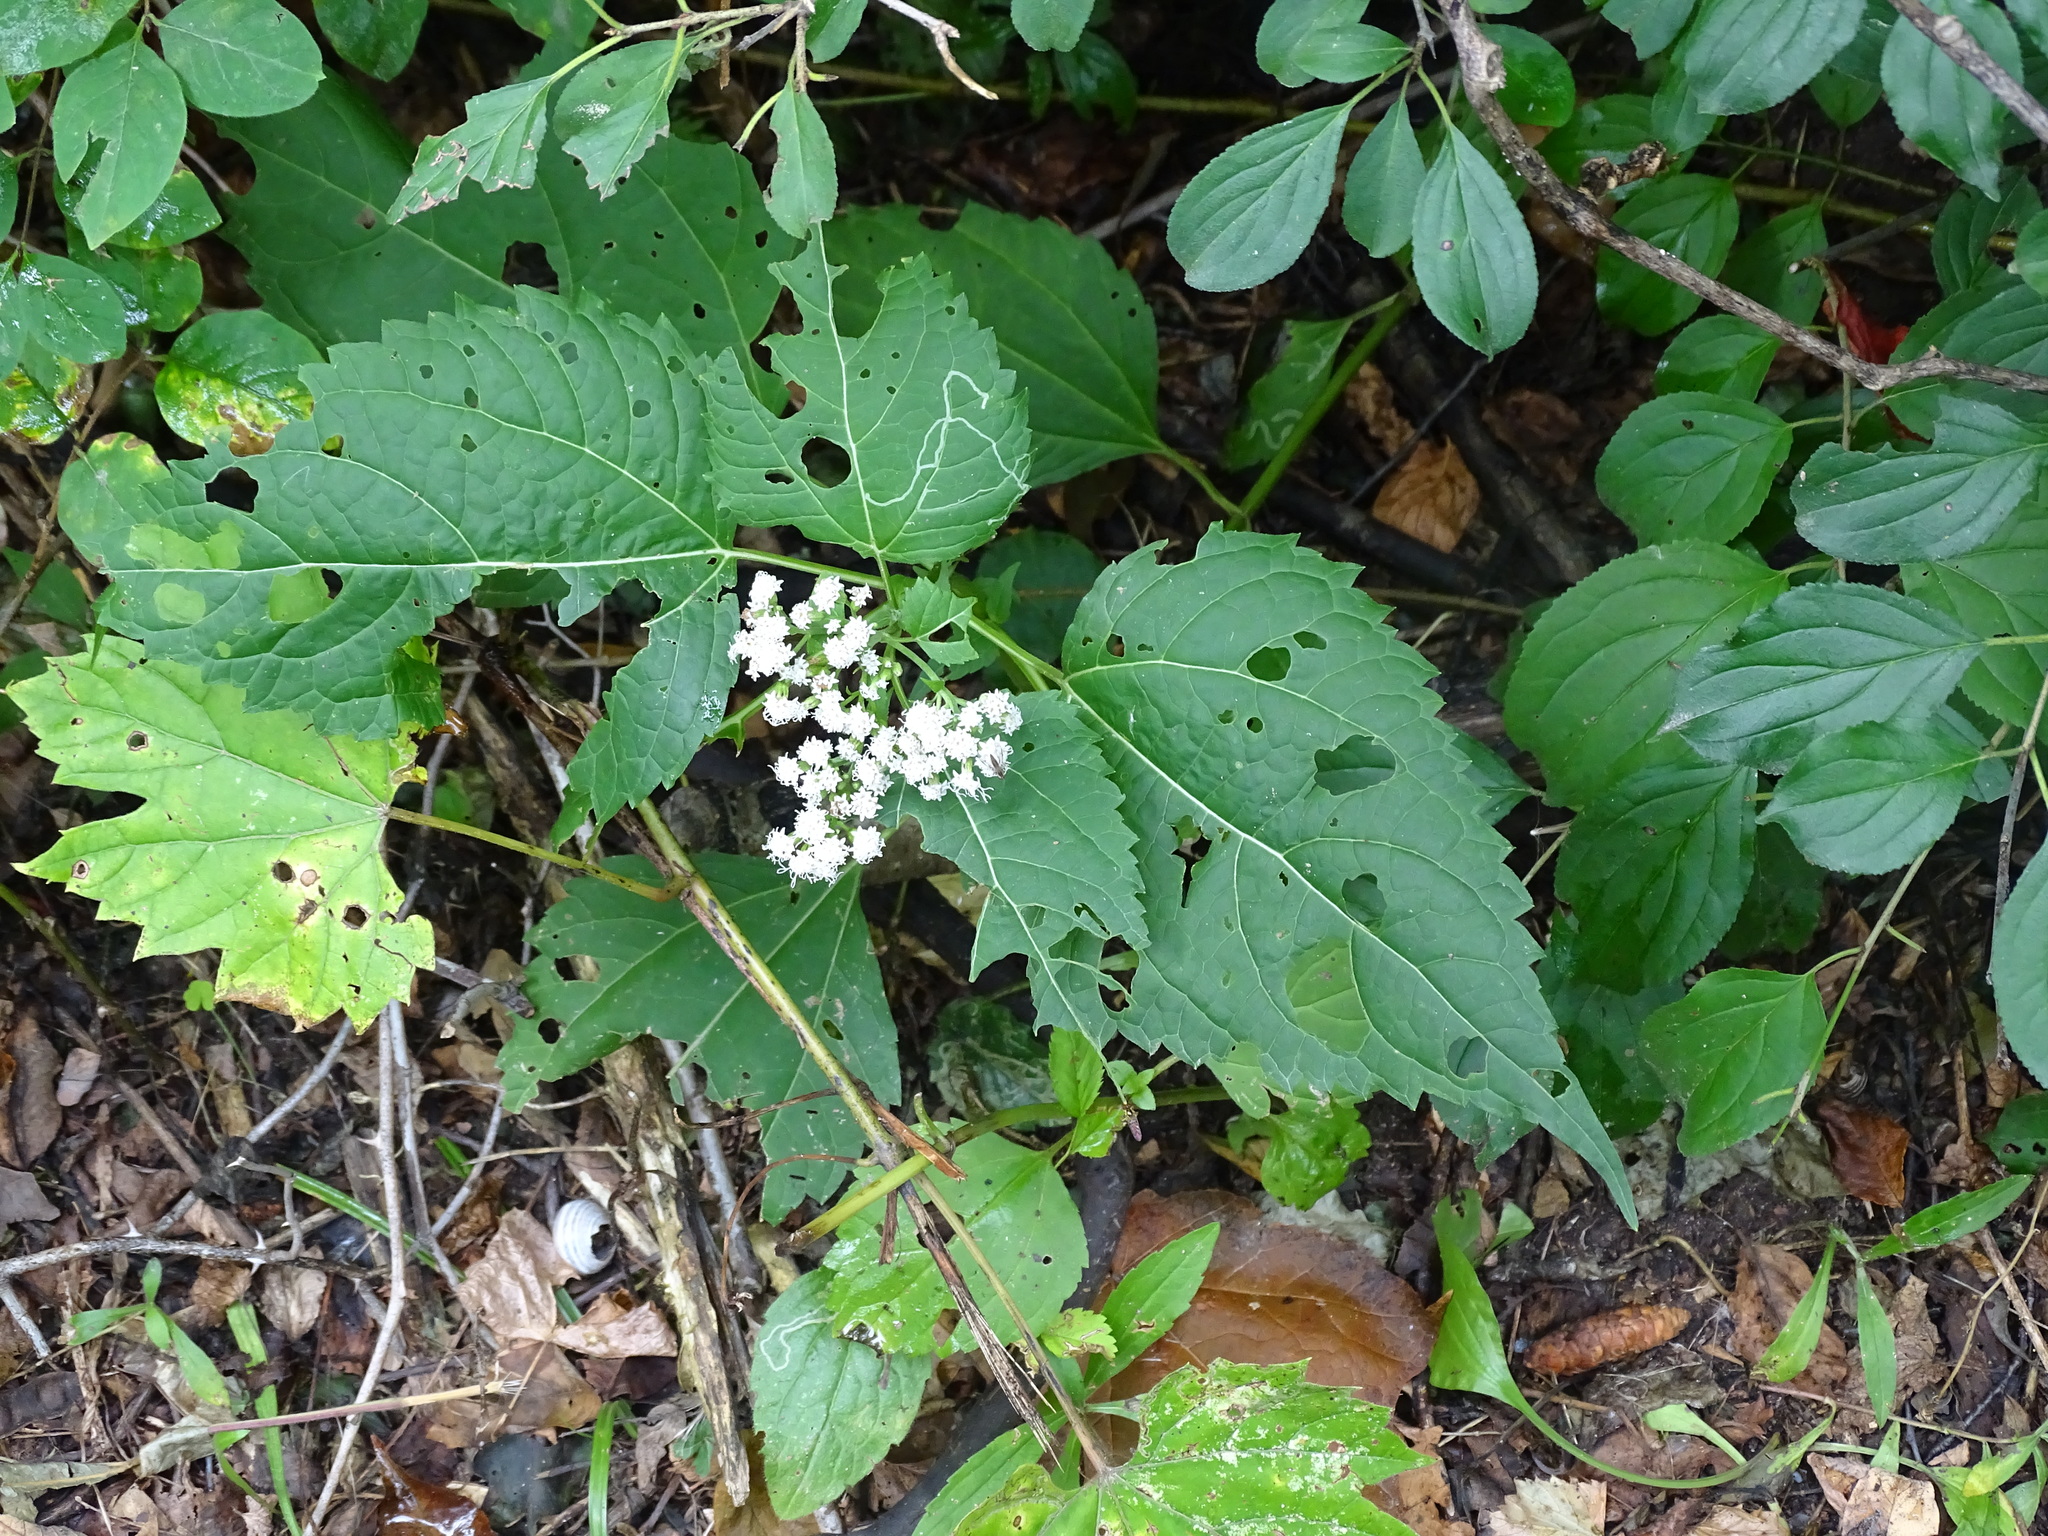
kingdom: Plantae
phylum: Tracheophyta
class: Magnoliopsida
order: Asterales
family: Asteraceae
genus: Ageratina
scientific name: Ageratina altissima
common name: White snakeroot
